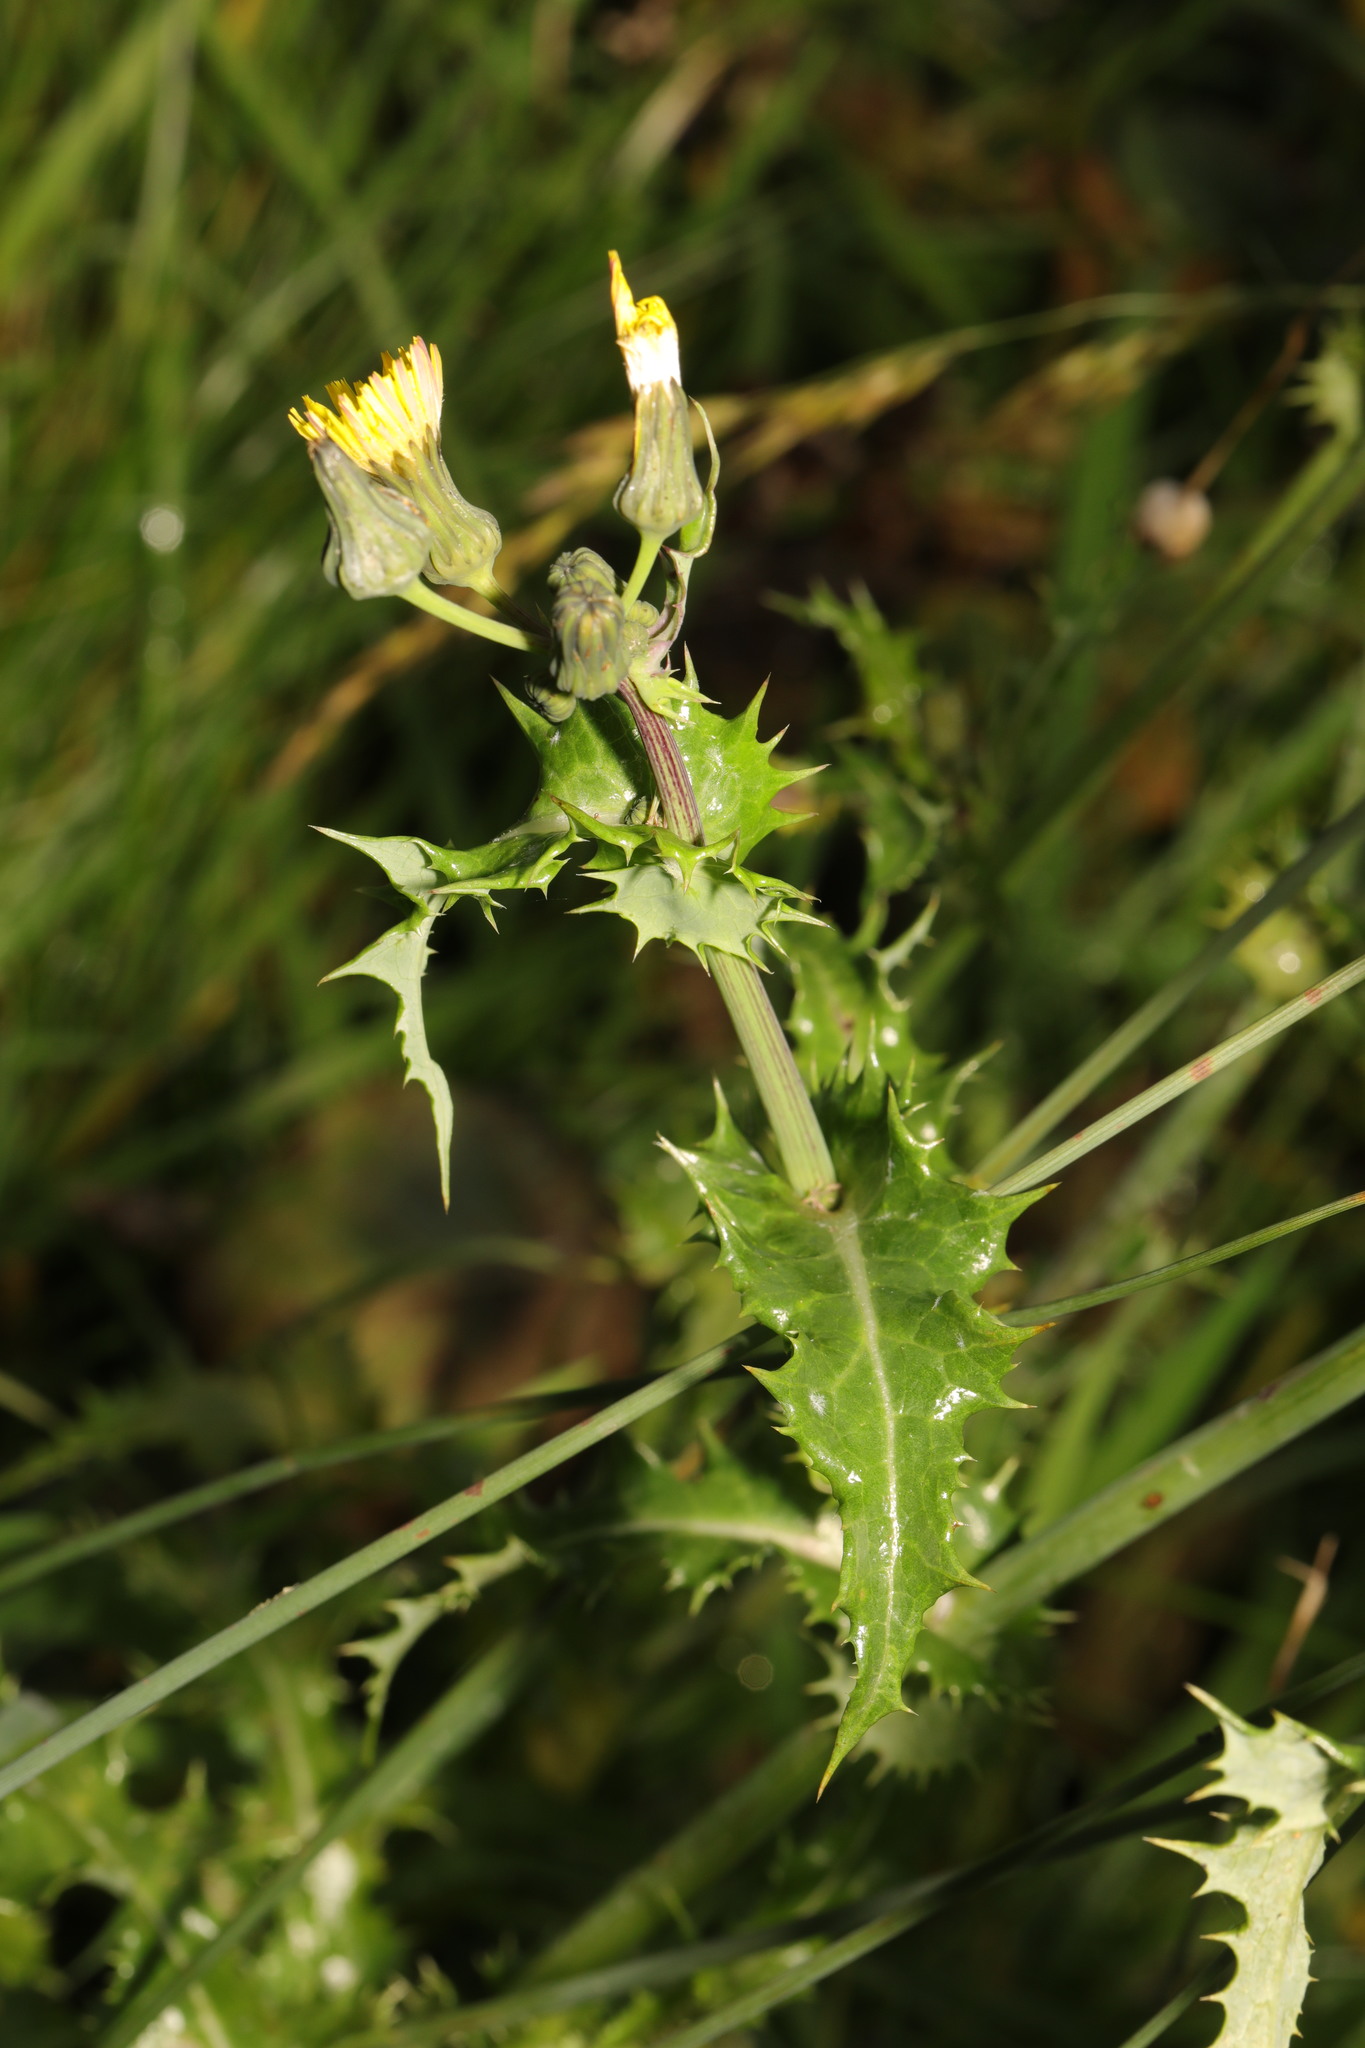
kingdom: Plantae
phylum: Tracheophyta
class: Magnoliopsida
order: Asterales
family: Asteraceae
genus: Sonchus
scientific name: Sonchus asper
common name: Prickly sow-thistle
